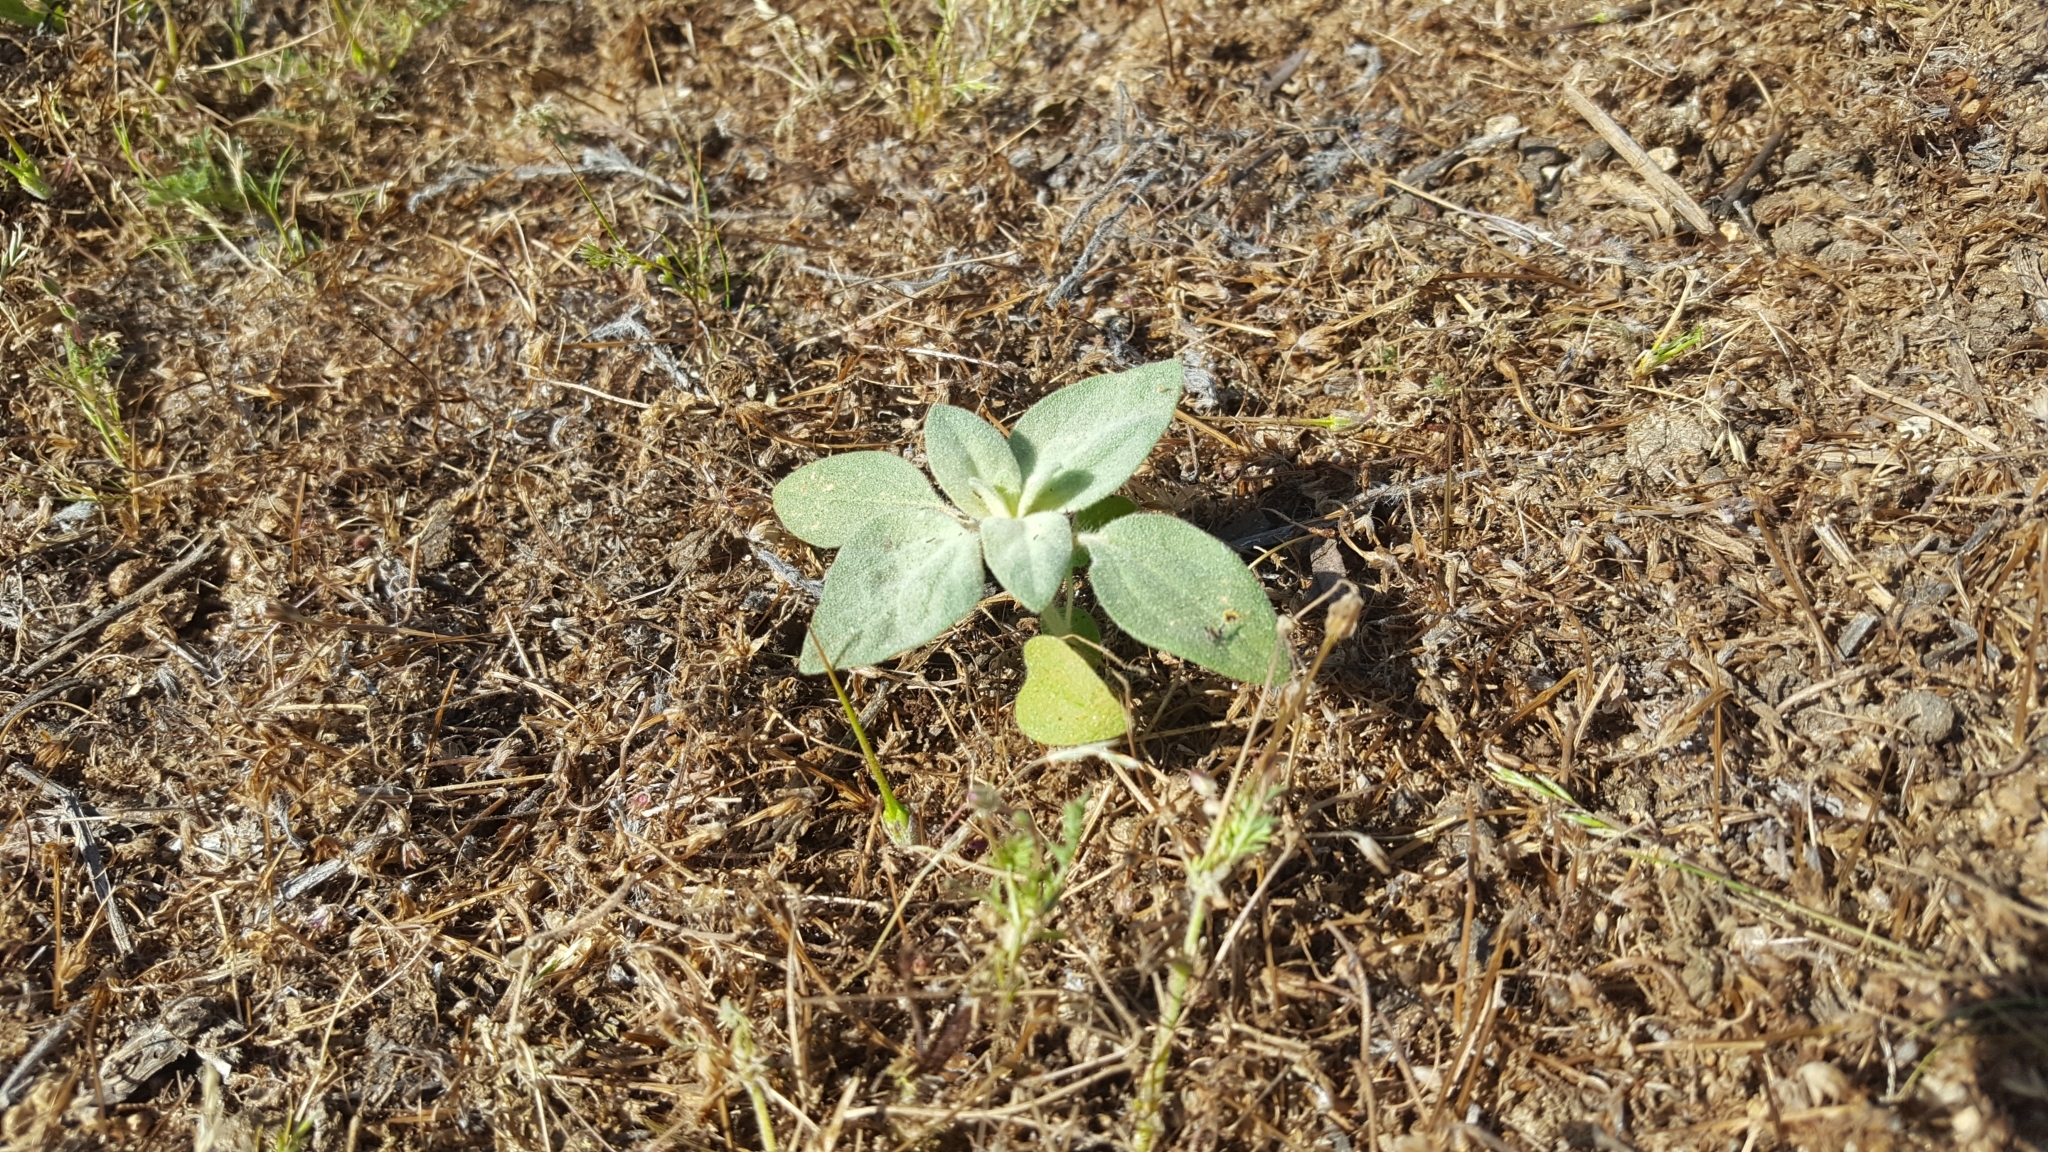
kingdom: Plantae
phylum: Tracheophyta
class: Magnoliopsida
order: Malpighiales
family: Euphorbiaceae
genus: Croton
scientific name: Croton setiger
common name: Dove weed
